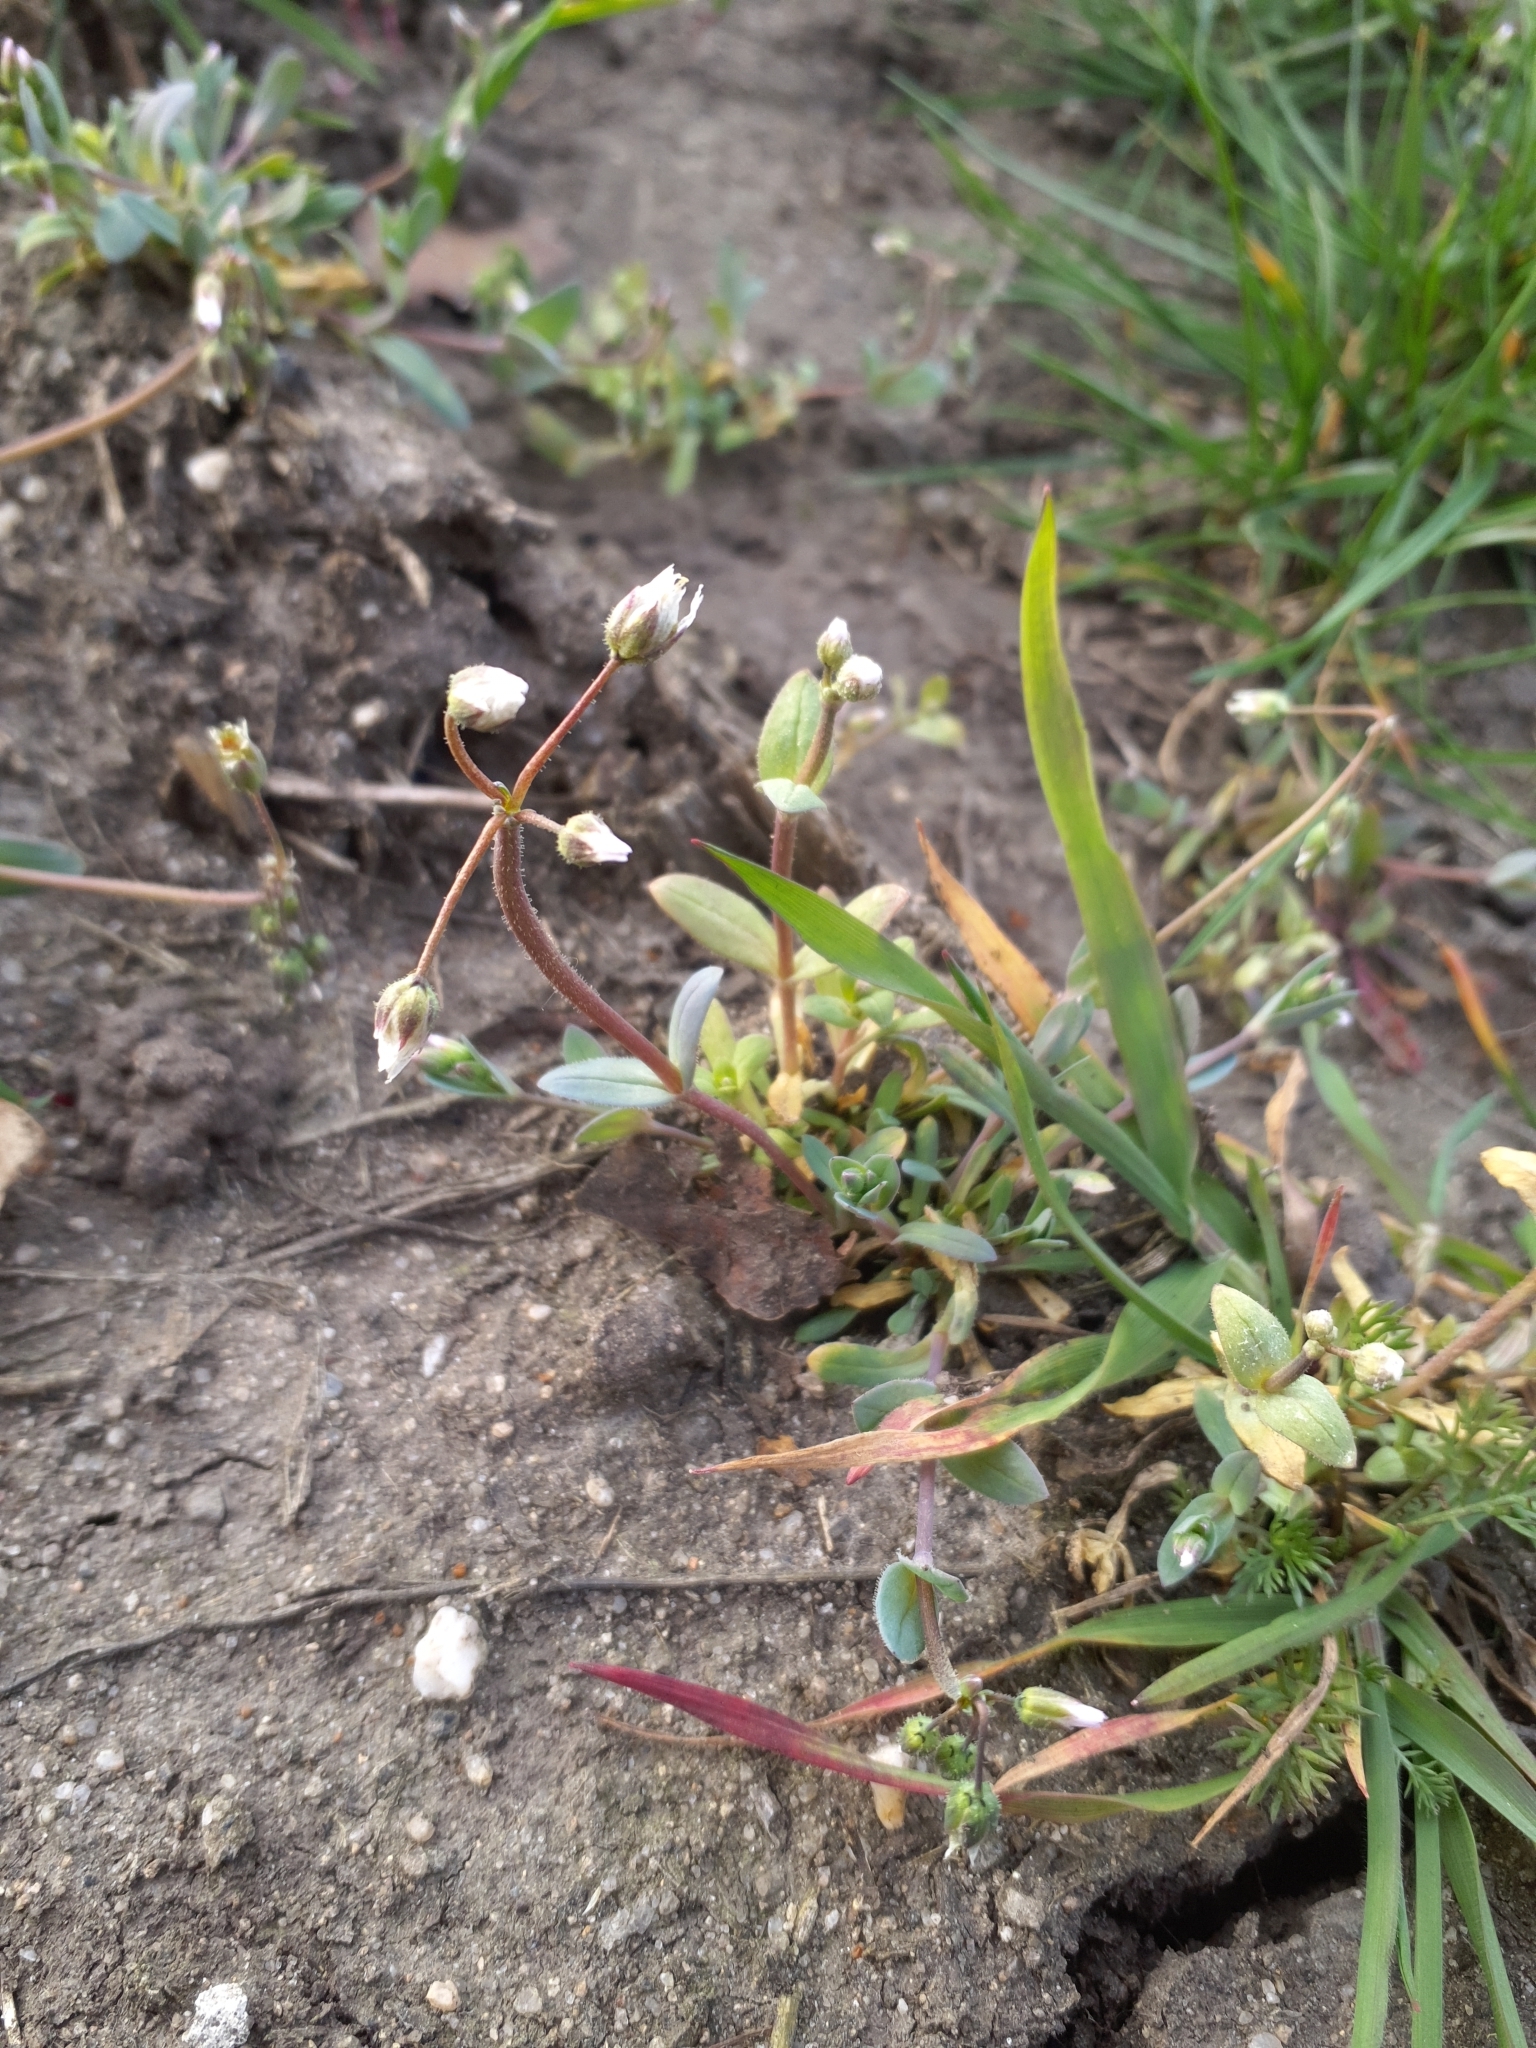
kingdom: Plantae
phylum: Tracheophyta
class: Magnoliopsida
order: Caryophyllales
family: Caryophyllaceae
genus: Holosteum
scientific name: Holosteum umbellatum
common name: Jagged chickweed
